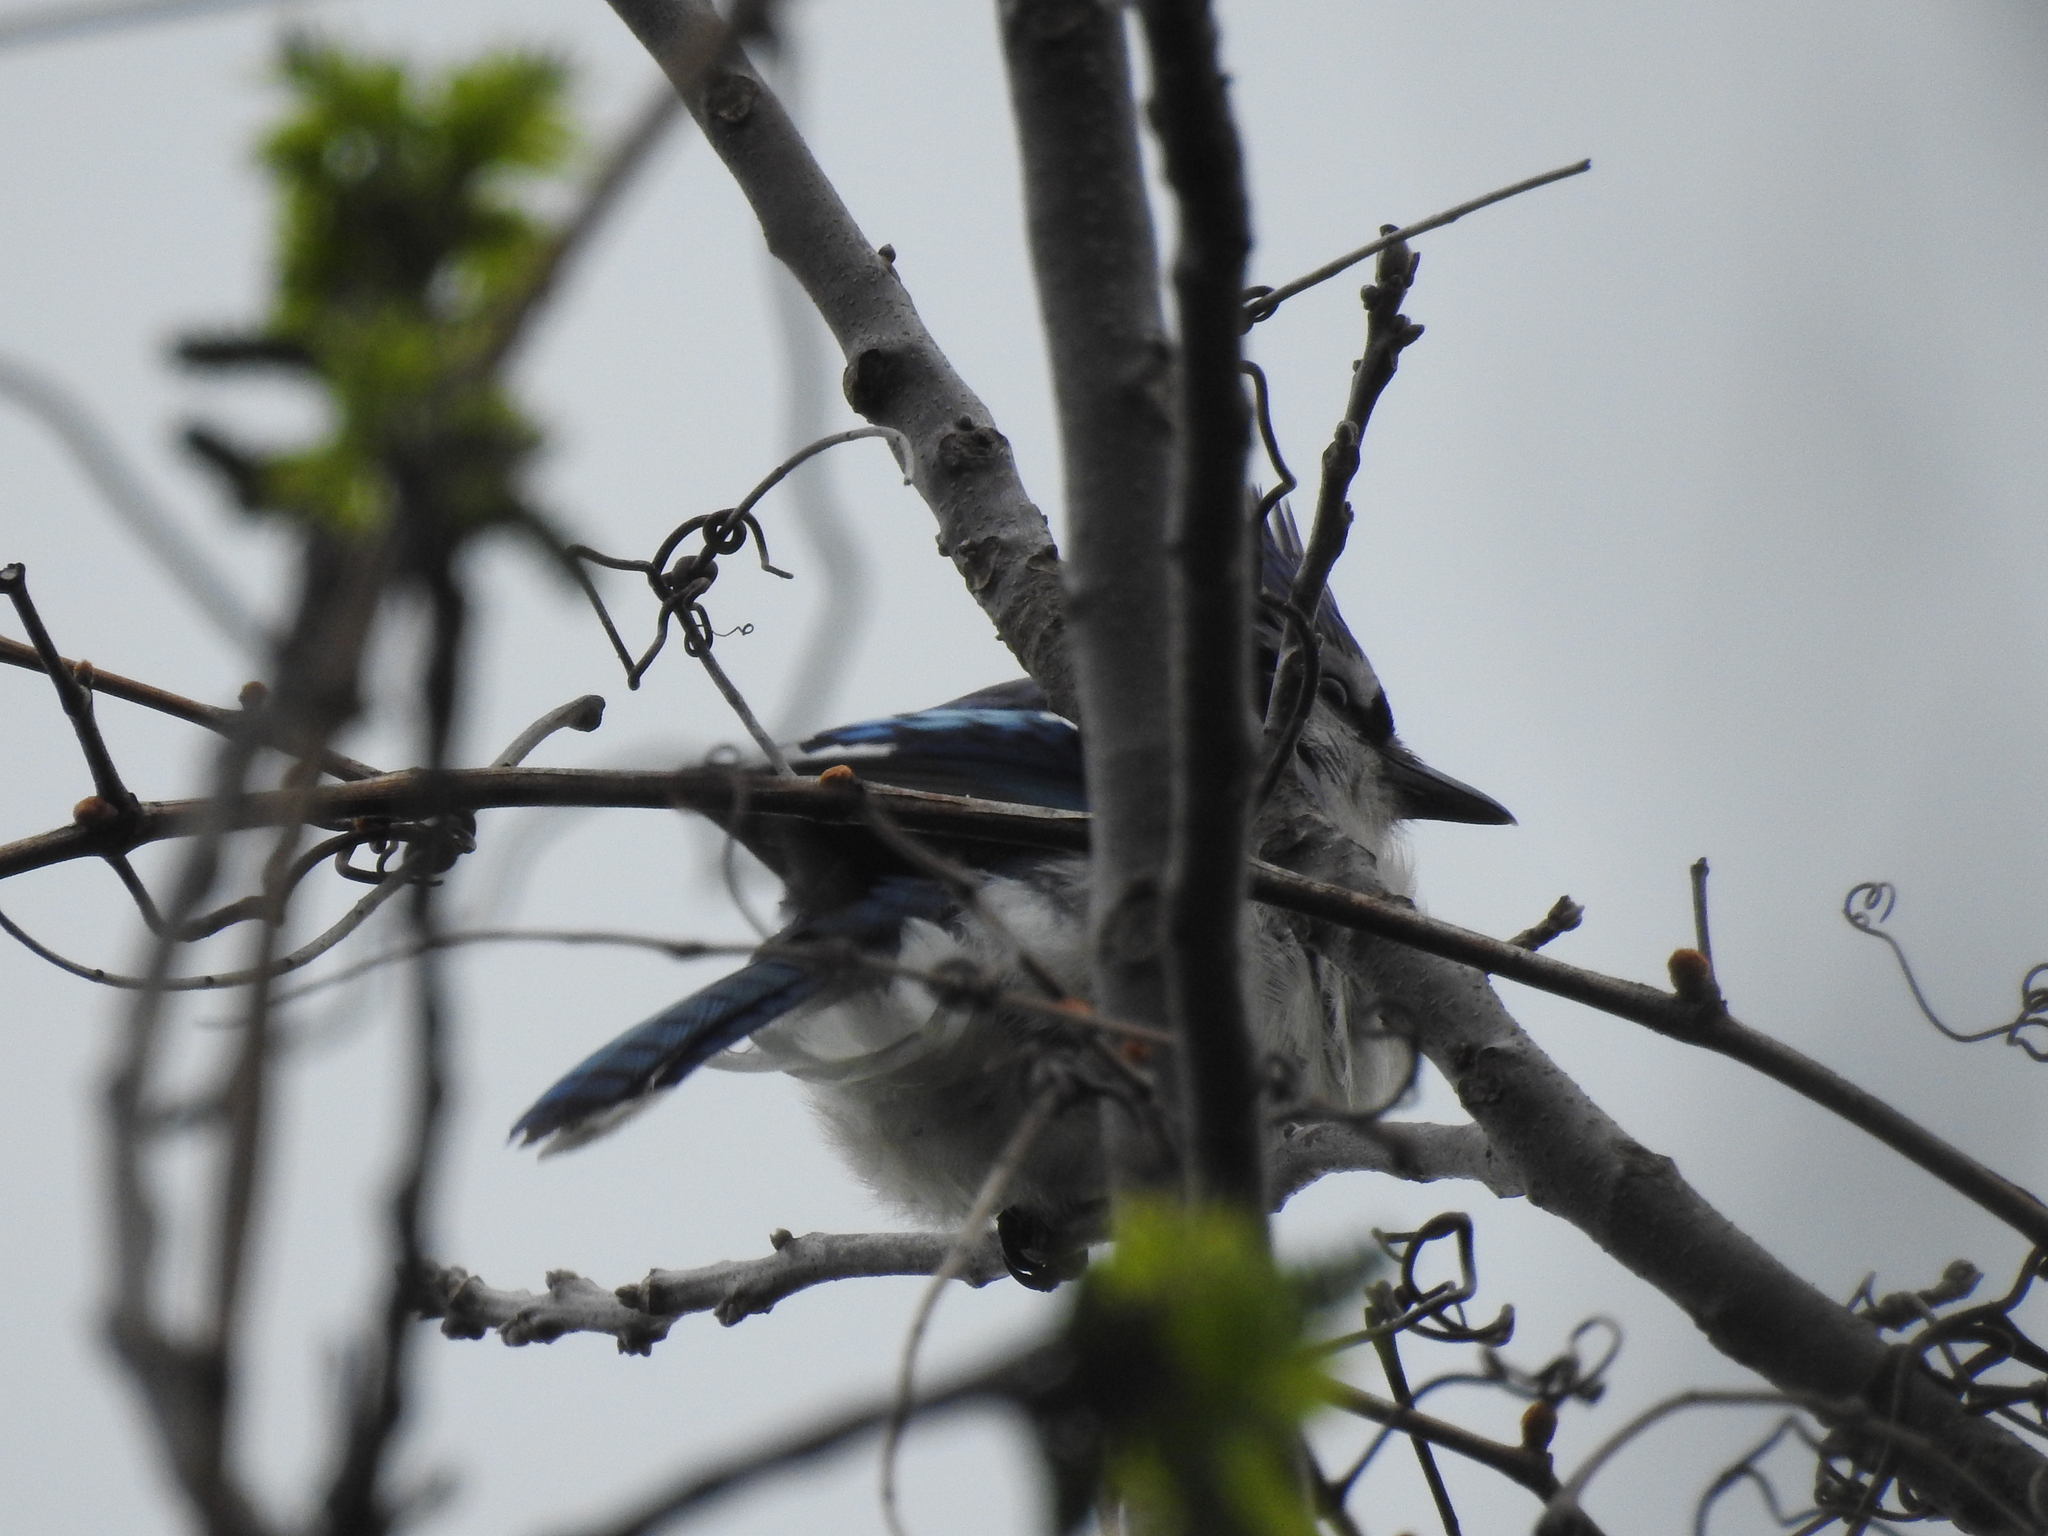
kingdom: Animalia
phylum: Chordata
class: Aves
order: Passeriformes
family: Corvidae
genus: Cyanocitta
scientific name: Cyanocitta cristata
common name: Blue jay
